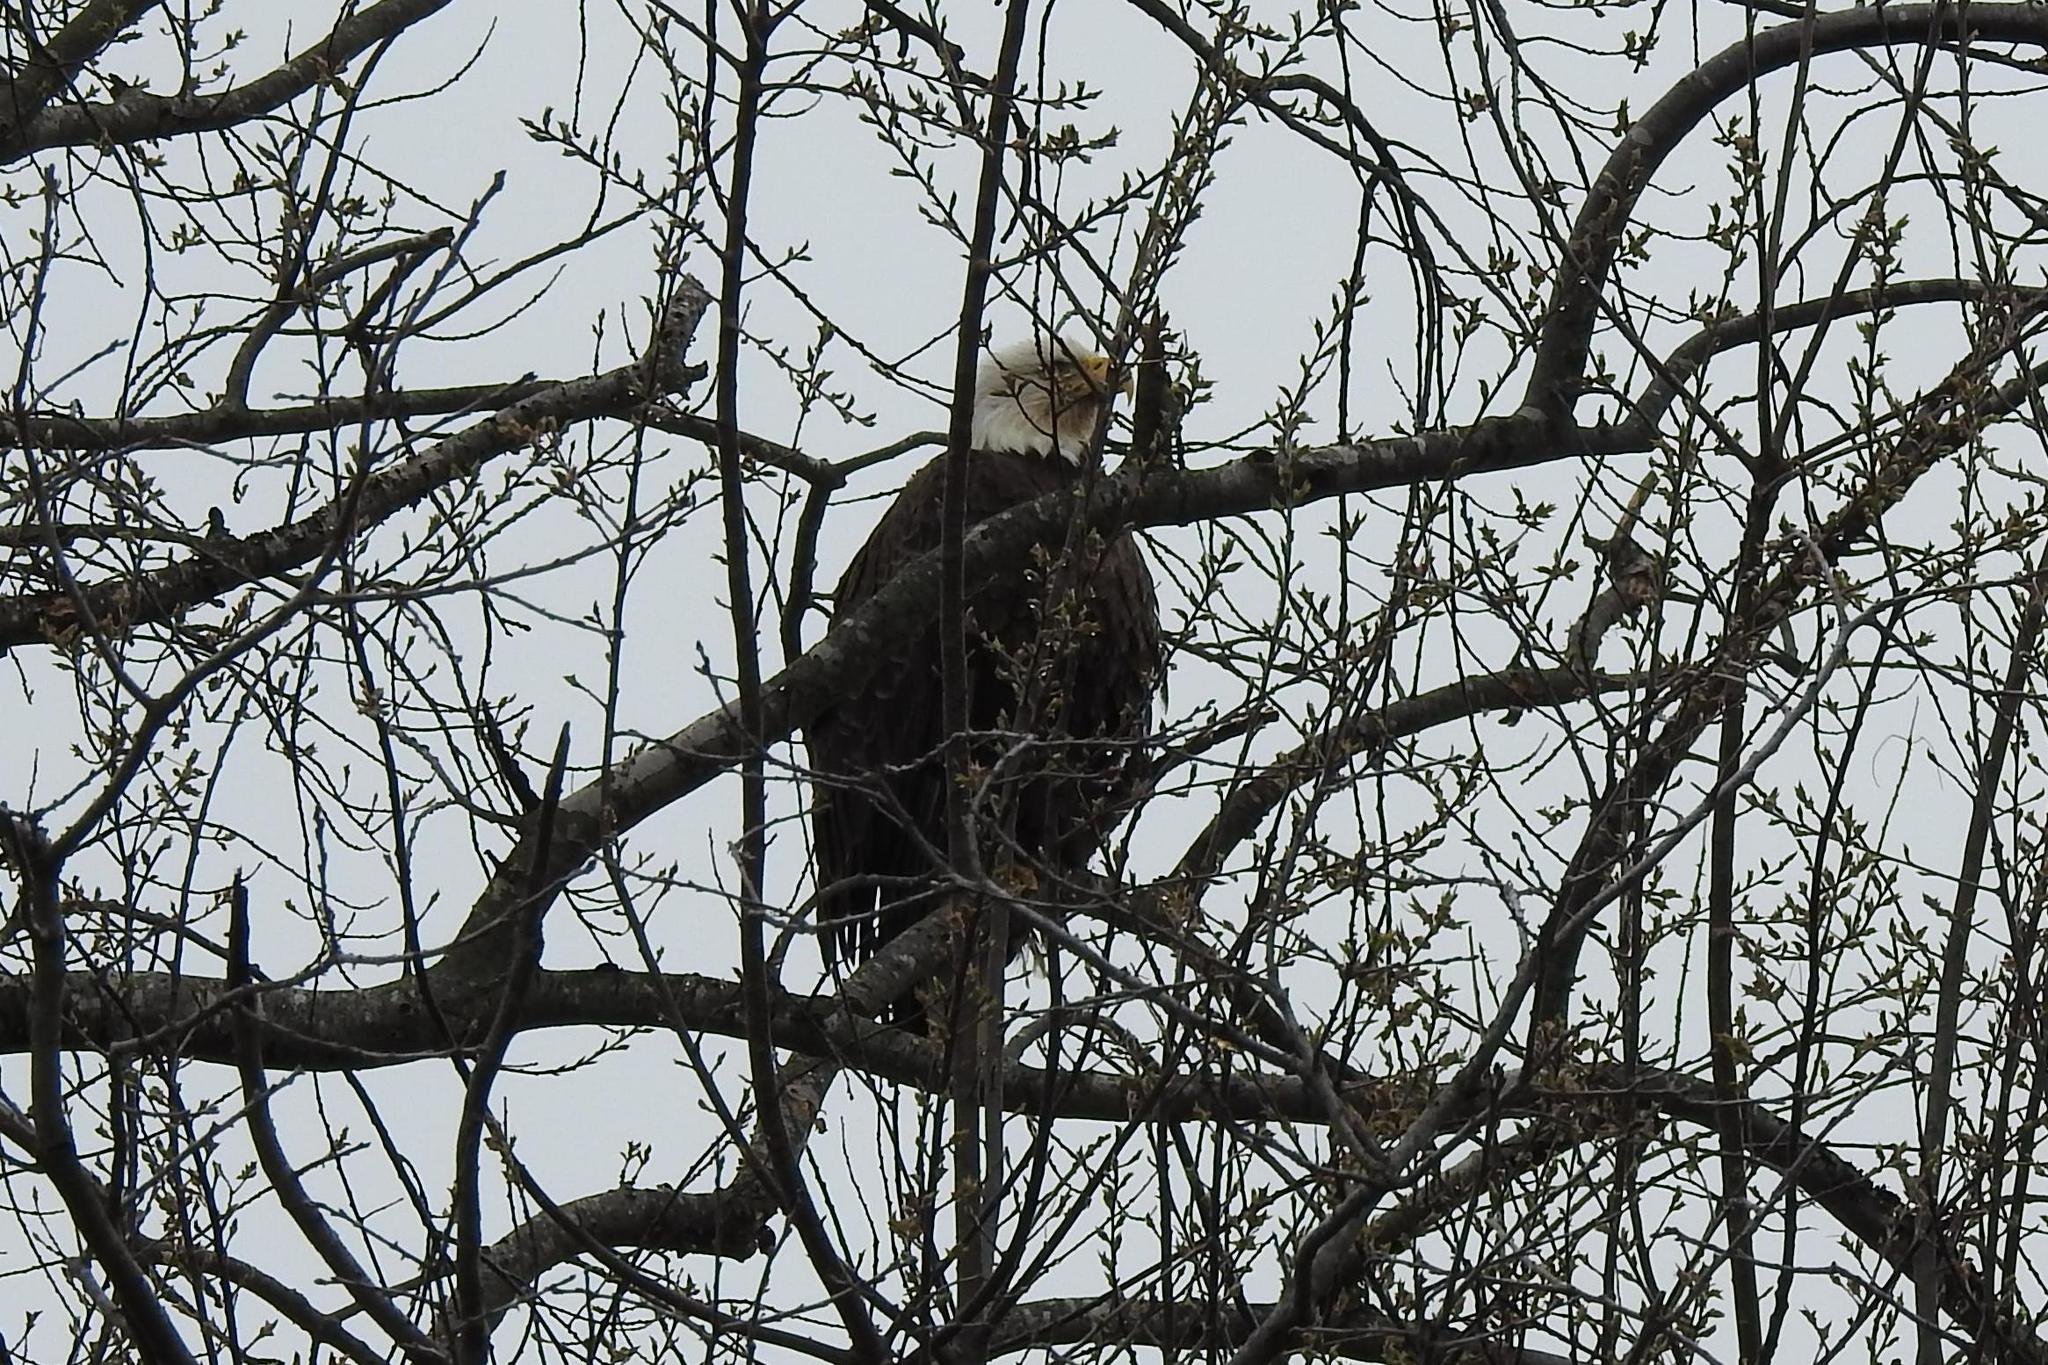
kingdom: Animalia
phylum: Chordata
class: Aves
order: Accipitriformes
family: Accipitridae
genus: Haliaeetus
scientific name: Haliaeetus leucocephalus
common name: Bald eagle
